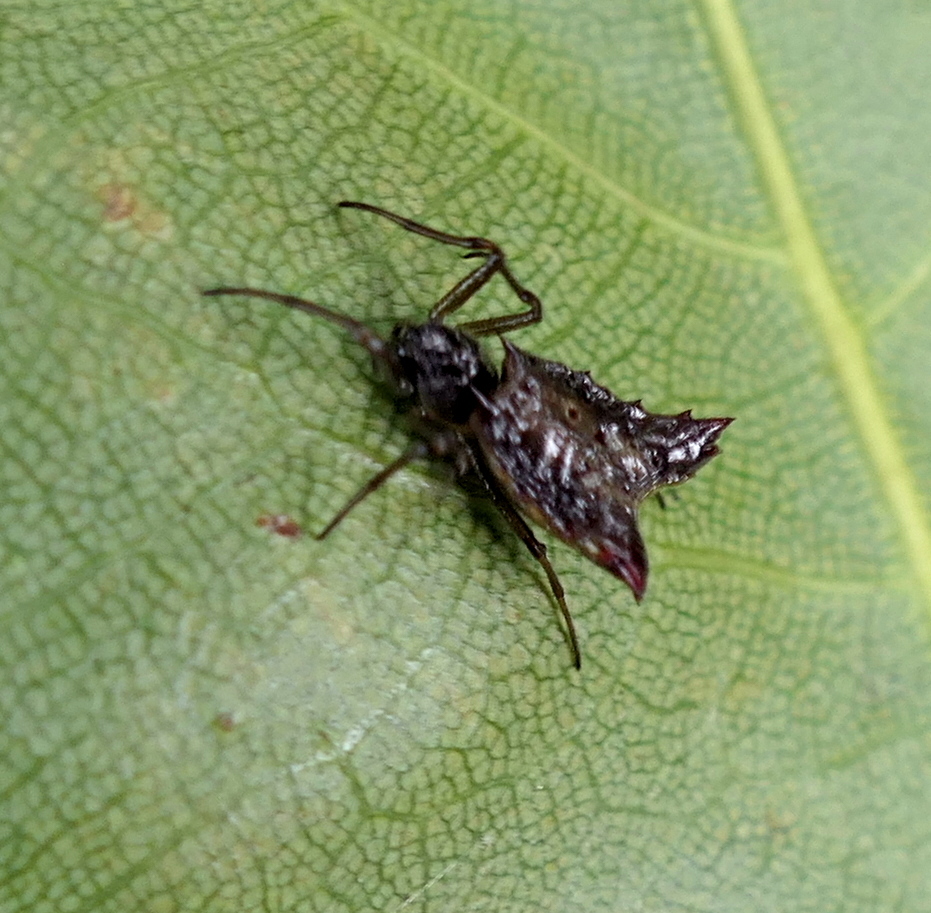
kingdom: Animalia
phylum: Arthropoda
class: Arachnida
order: Araneae
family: Araneidae
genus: Micrathena
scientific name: Micrathena triangularis
